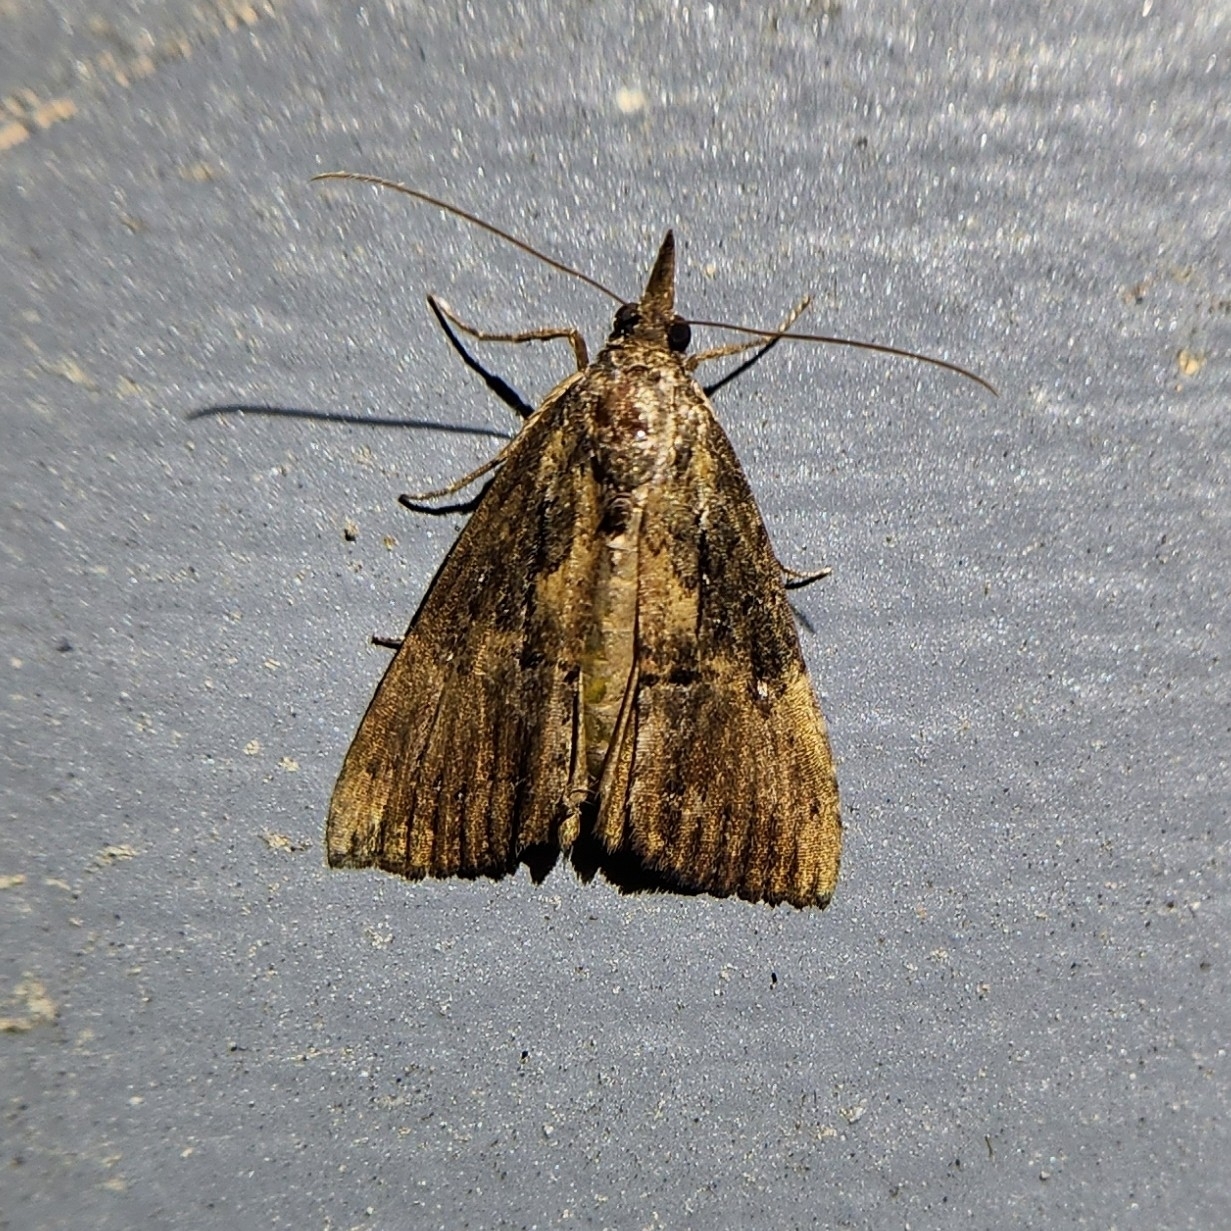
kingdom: Animalia
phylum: Arthropoda
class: Insecta
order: Lepidoptera
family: Erebidae
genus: Hypena
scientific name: Hypena scabra
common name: Green cloverworm
